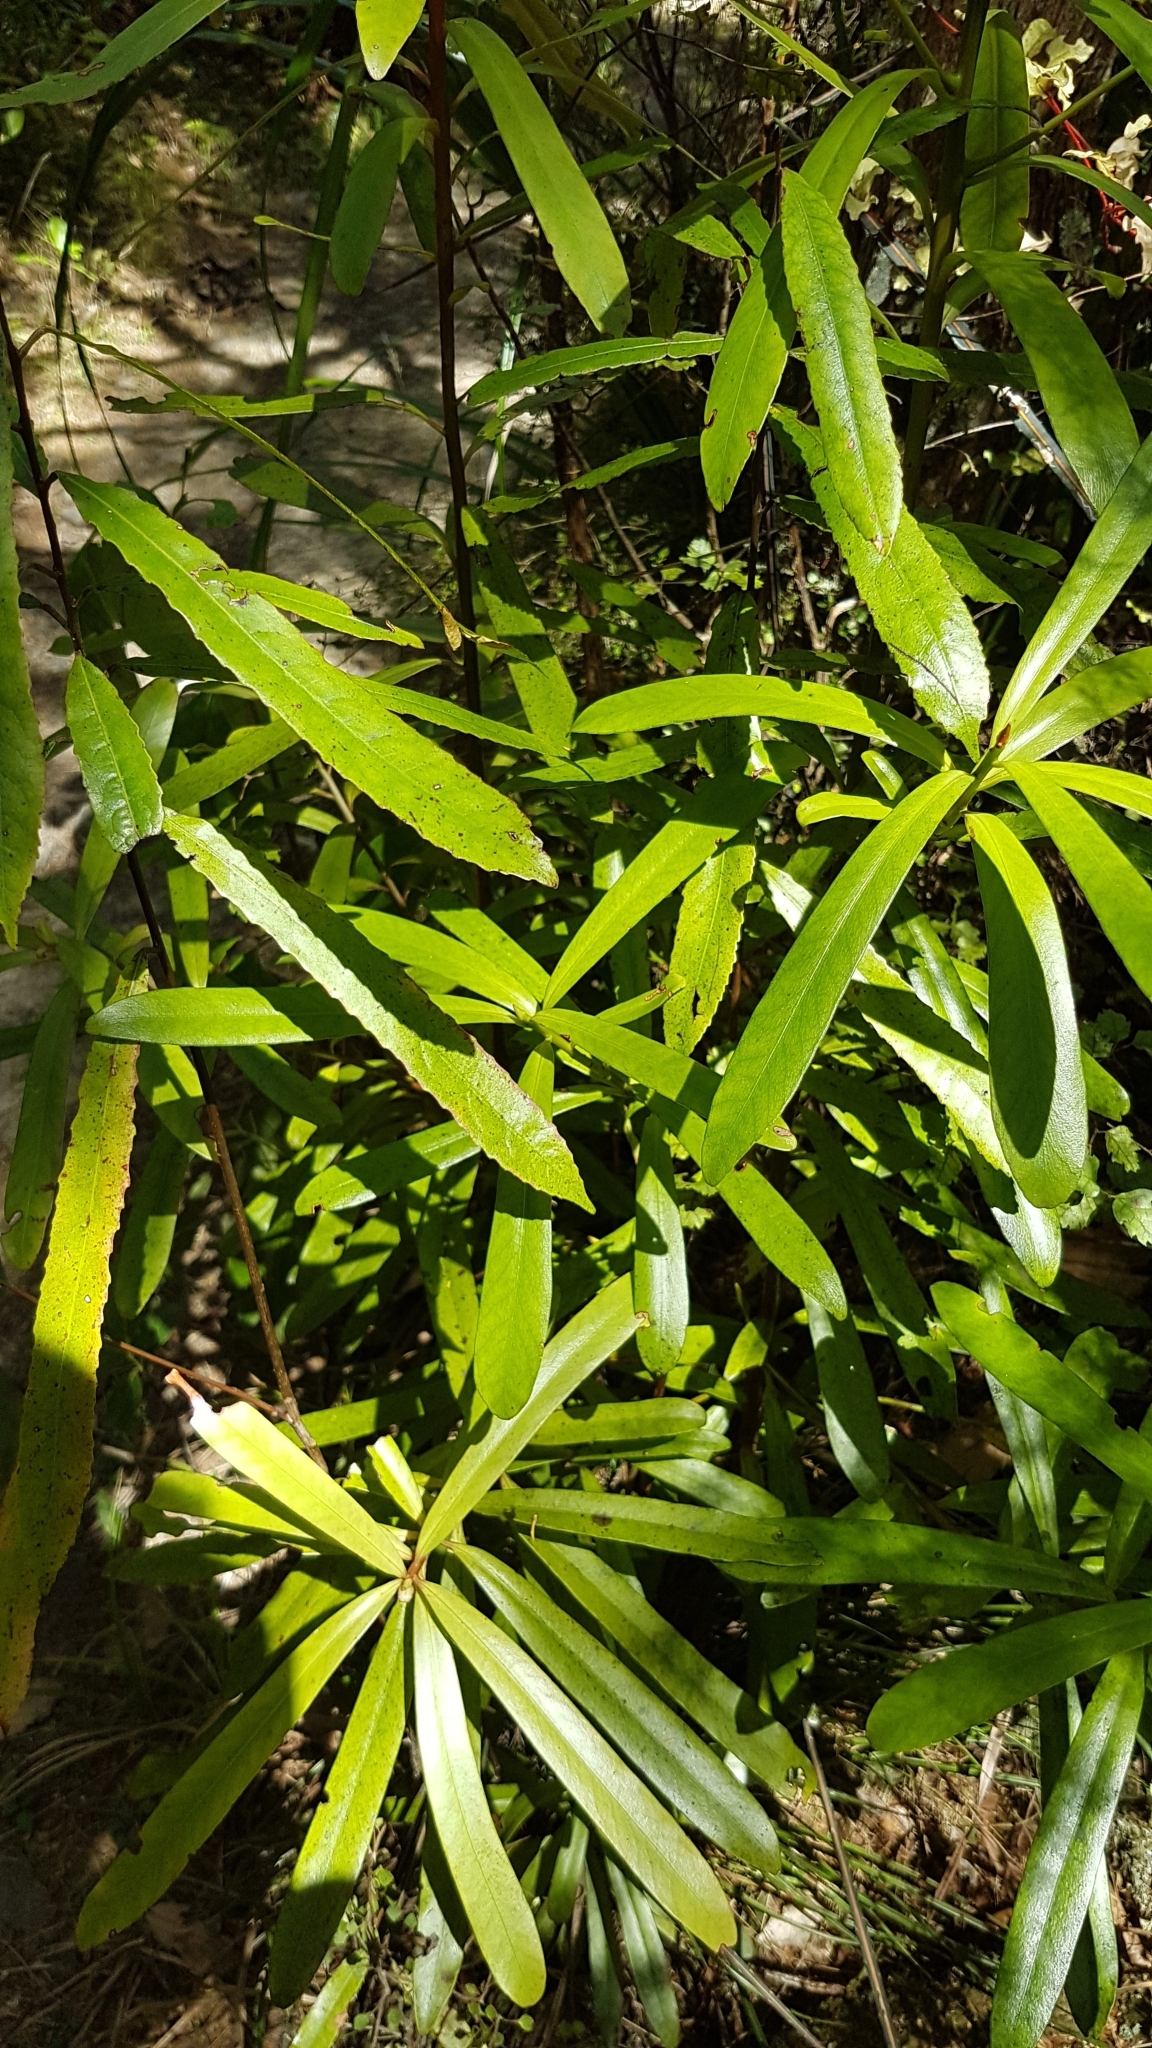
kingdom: Plantae
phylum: Tracheophyta
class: Magnoliopsida
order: Ericales
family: Primulaceae
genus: Myrsine
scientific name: Myrsine salicina
